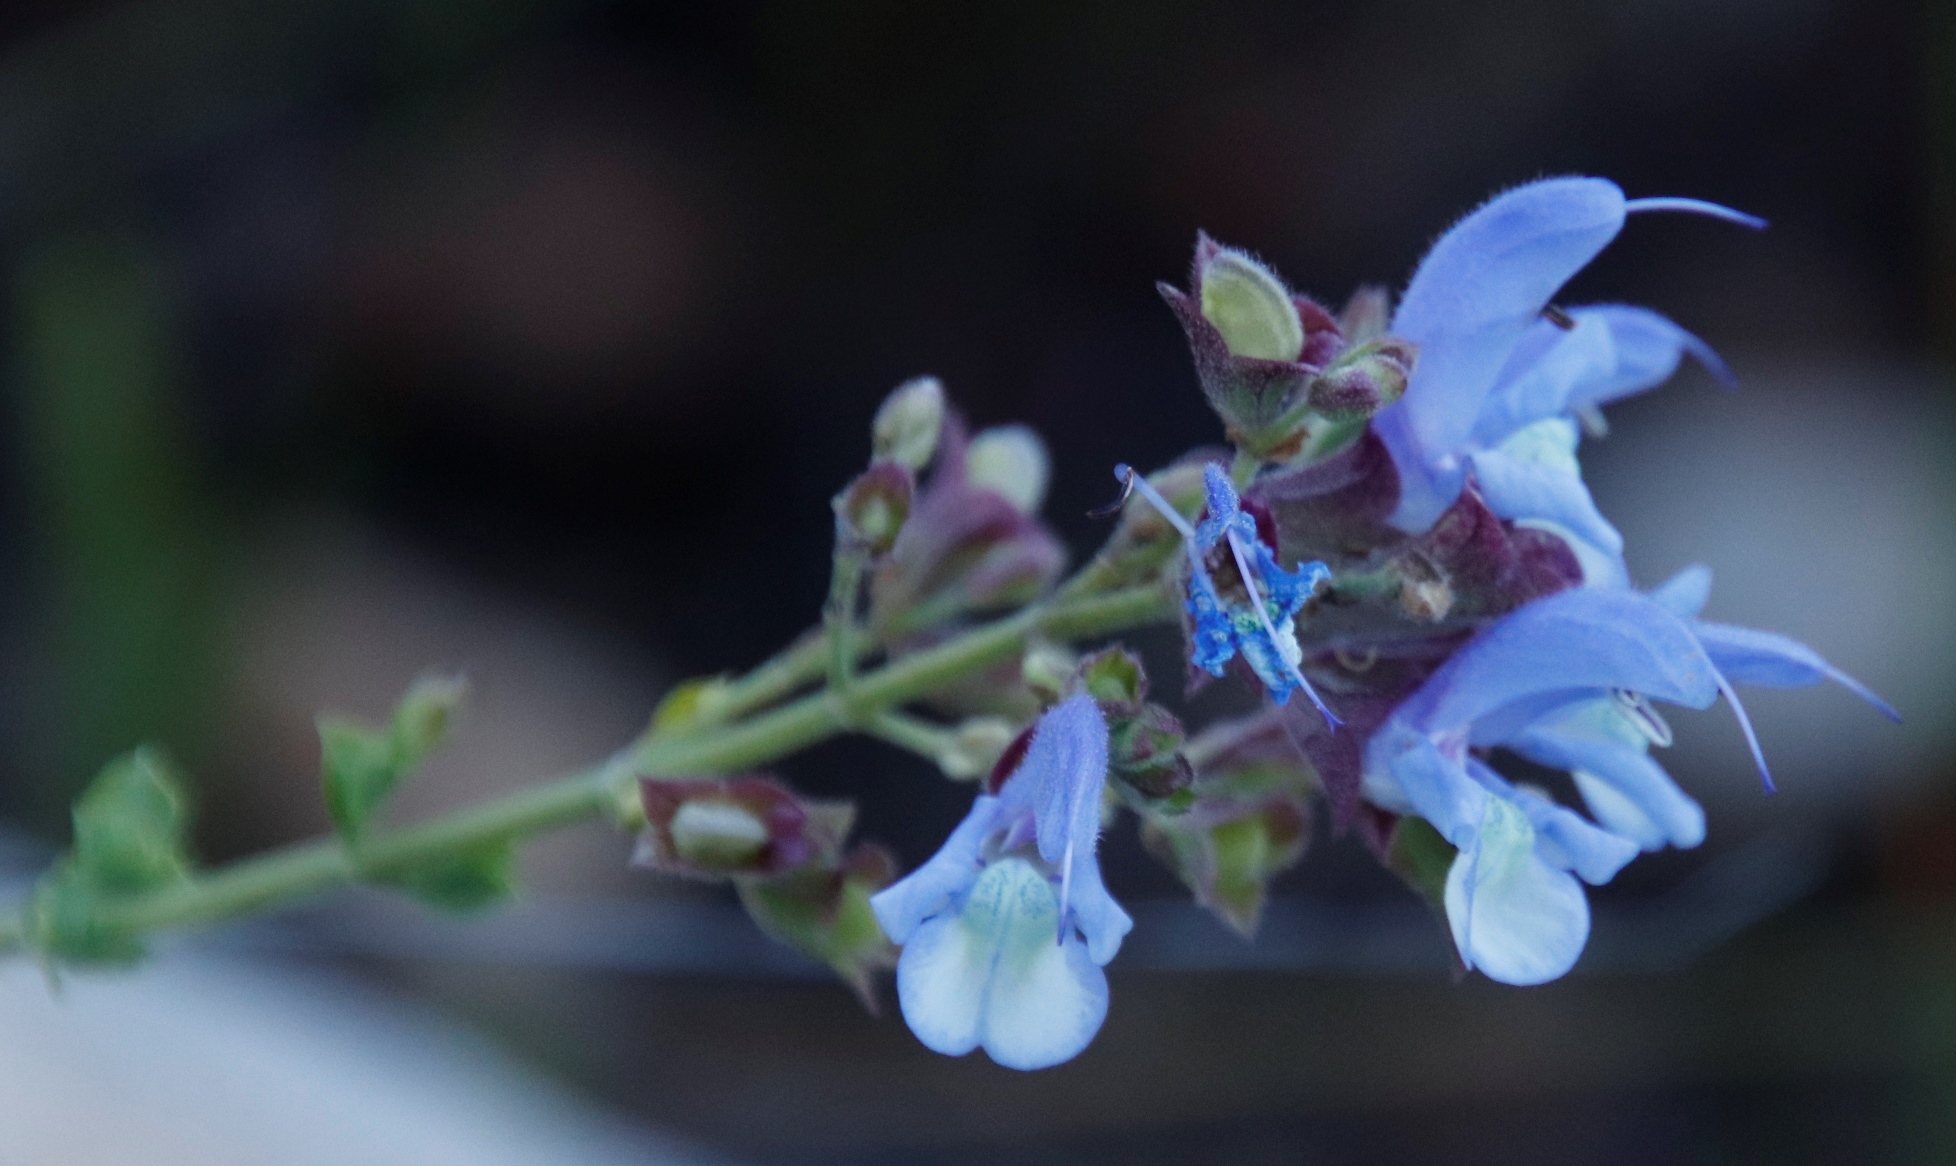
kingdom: Plantae
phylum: Tracheophyta
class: Magnoliopsida
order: Lamiales
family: Lamiaceae
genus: Salvia
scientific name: Salvia chamelaeagnea
